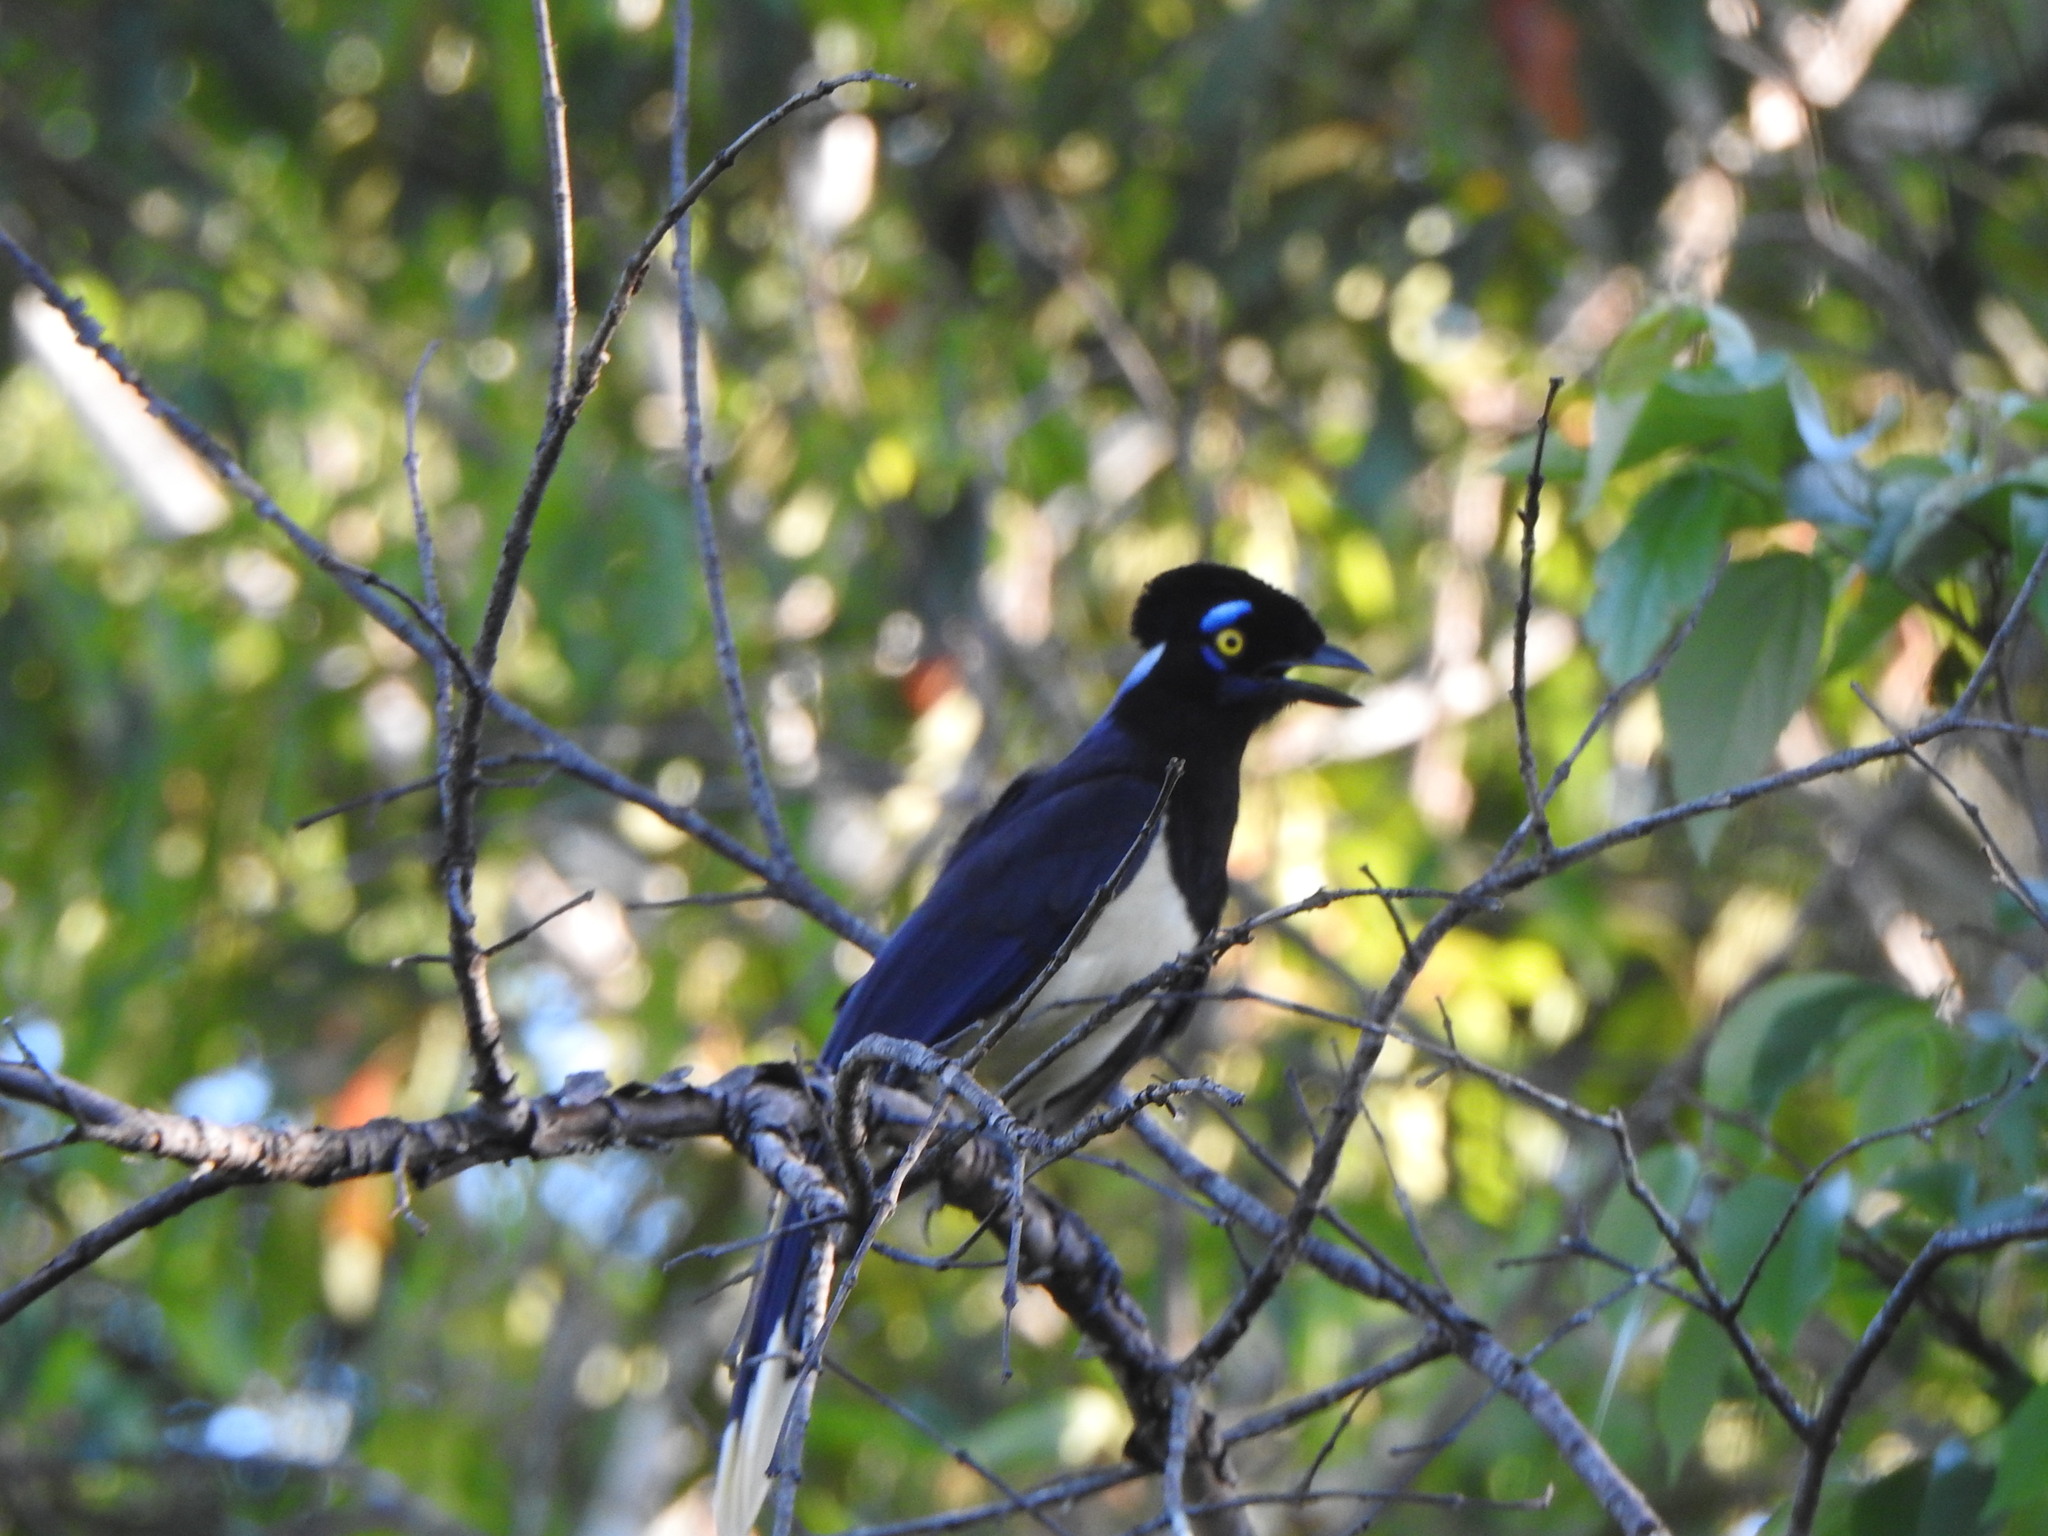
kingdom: Animalia
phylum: Chordata
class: Aves
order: Passeriformes
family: Corvidae
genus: Cyanocorax
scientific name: Cyanocorax chrysops
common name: Plush-crested jay
